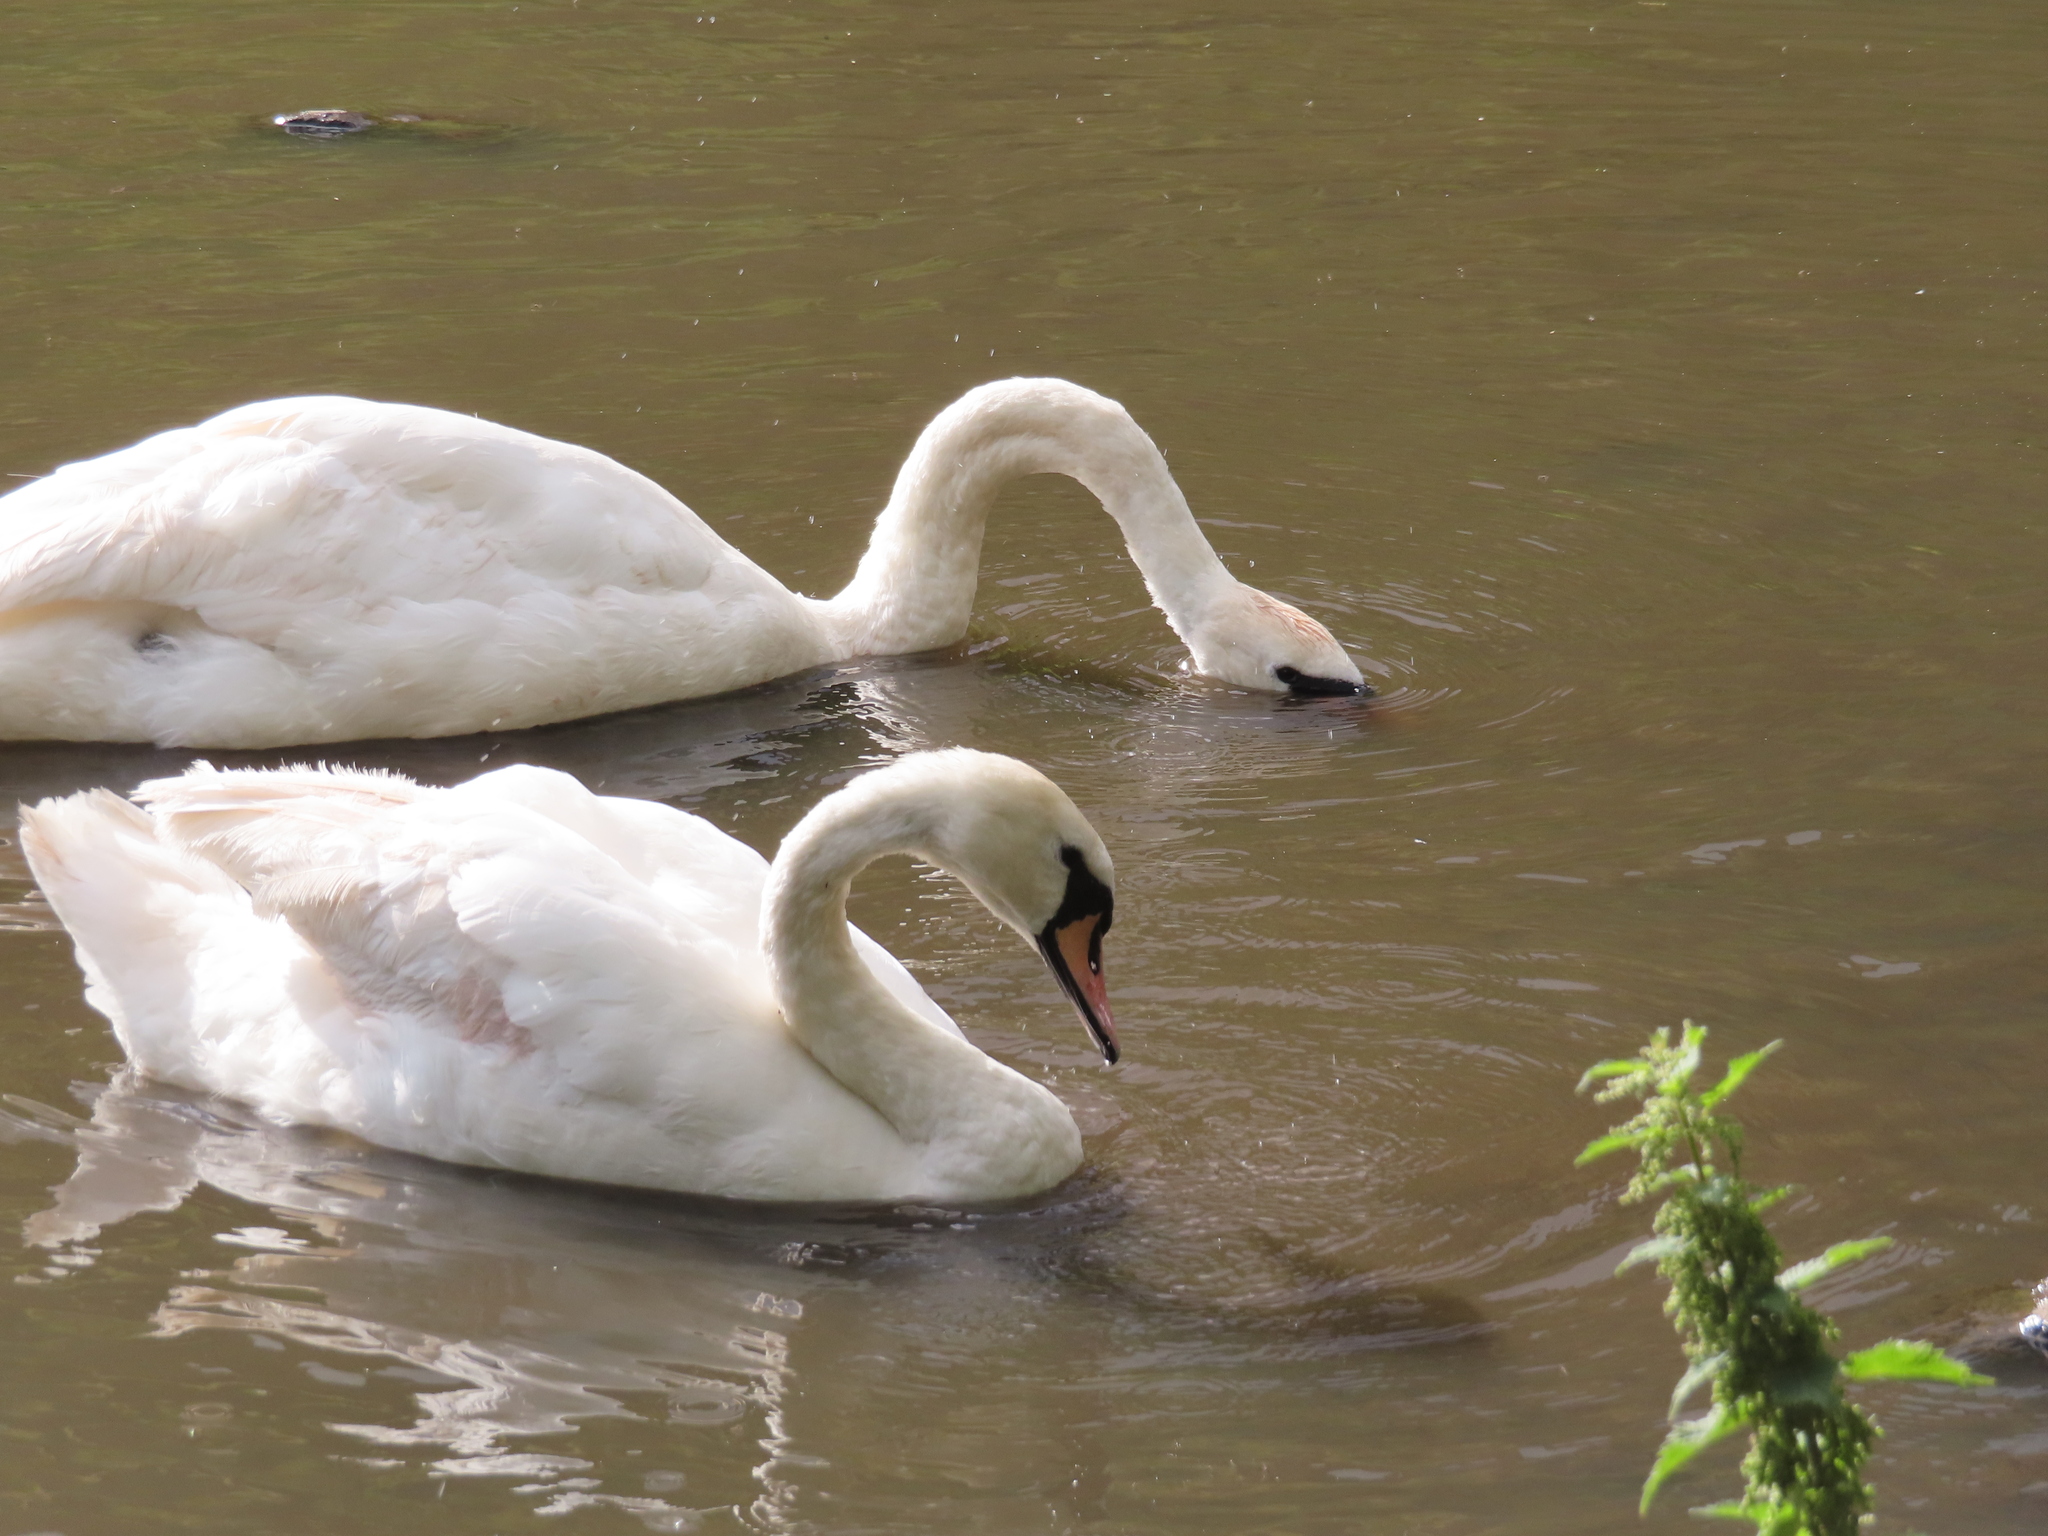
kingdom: Animalia
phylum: Chordata
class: Aves
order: Anseriformes
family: Anatidae
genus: Cygnus
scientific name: Cygnus olor
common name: Mute swan
